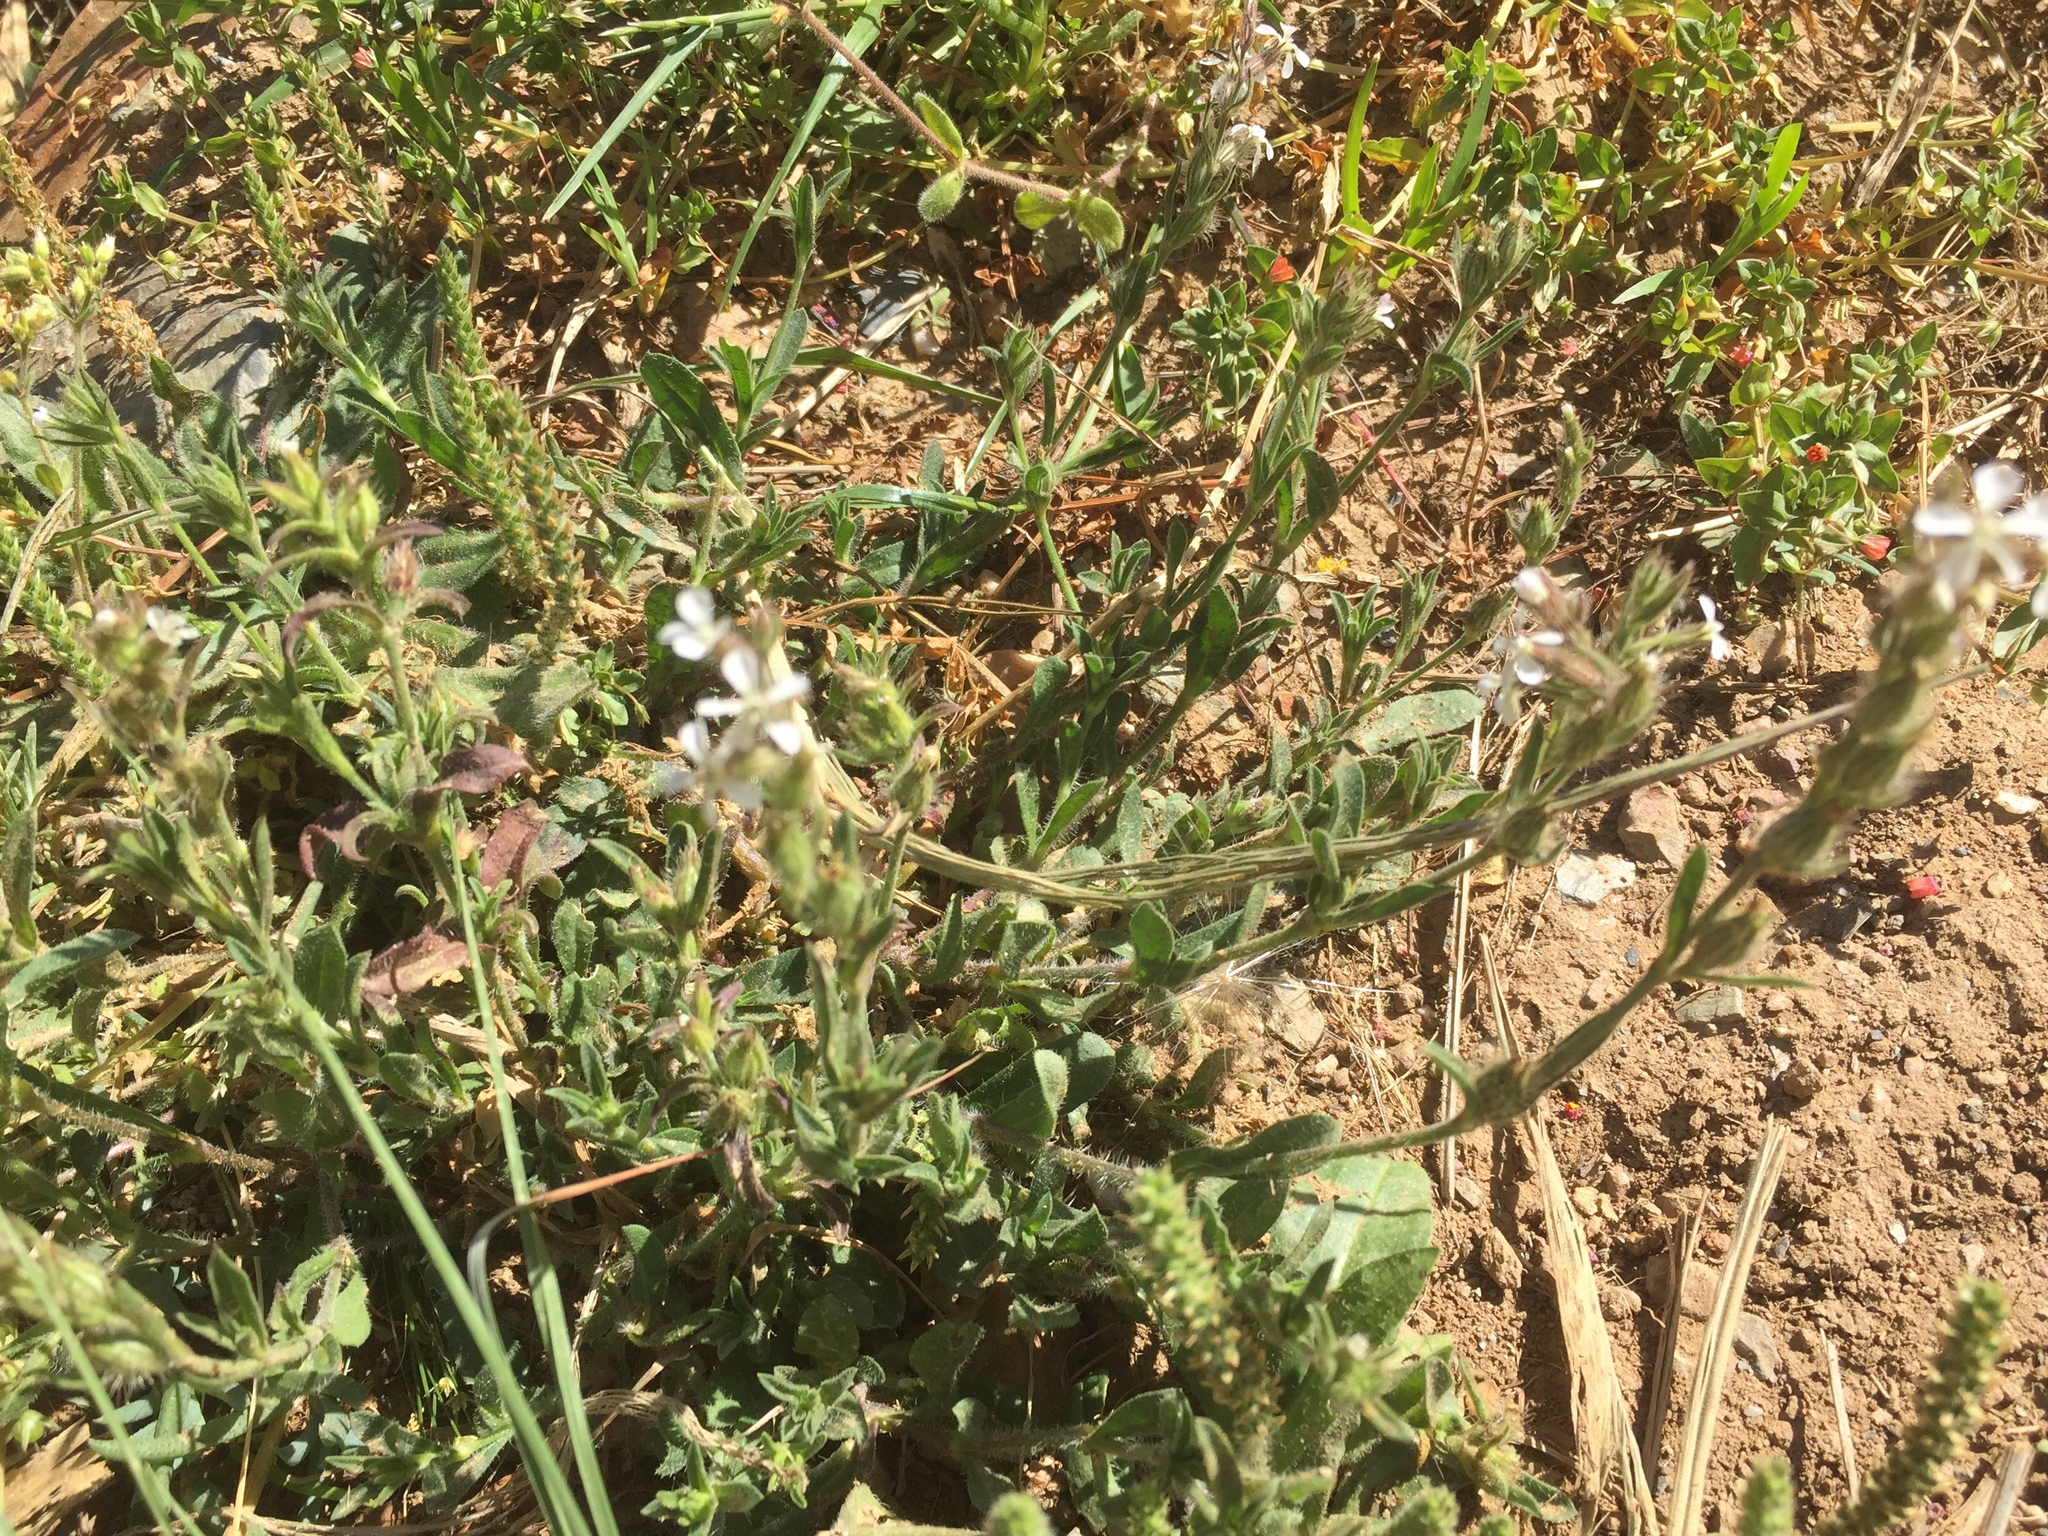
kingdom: Plantae
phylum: Tracheophyta
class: Magnoliopsida
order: Caryophyllales
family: Caryophyllaceae
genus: Silene
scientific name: Silene gallica
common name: Small-flowered catchfly
